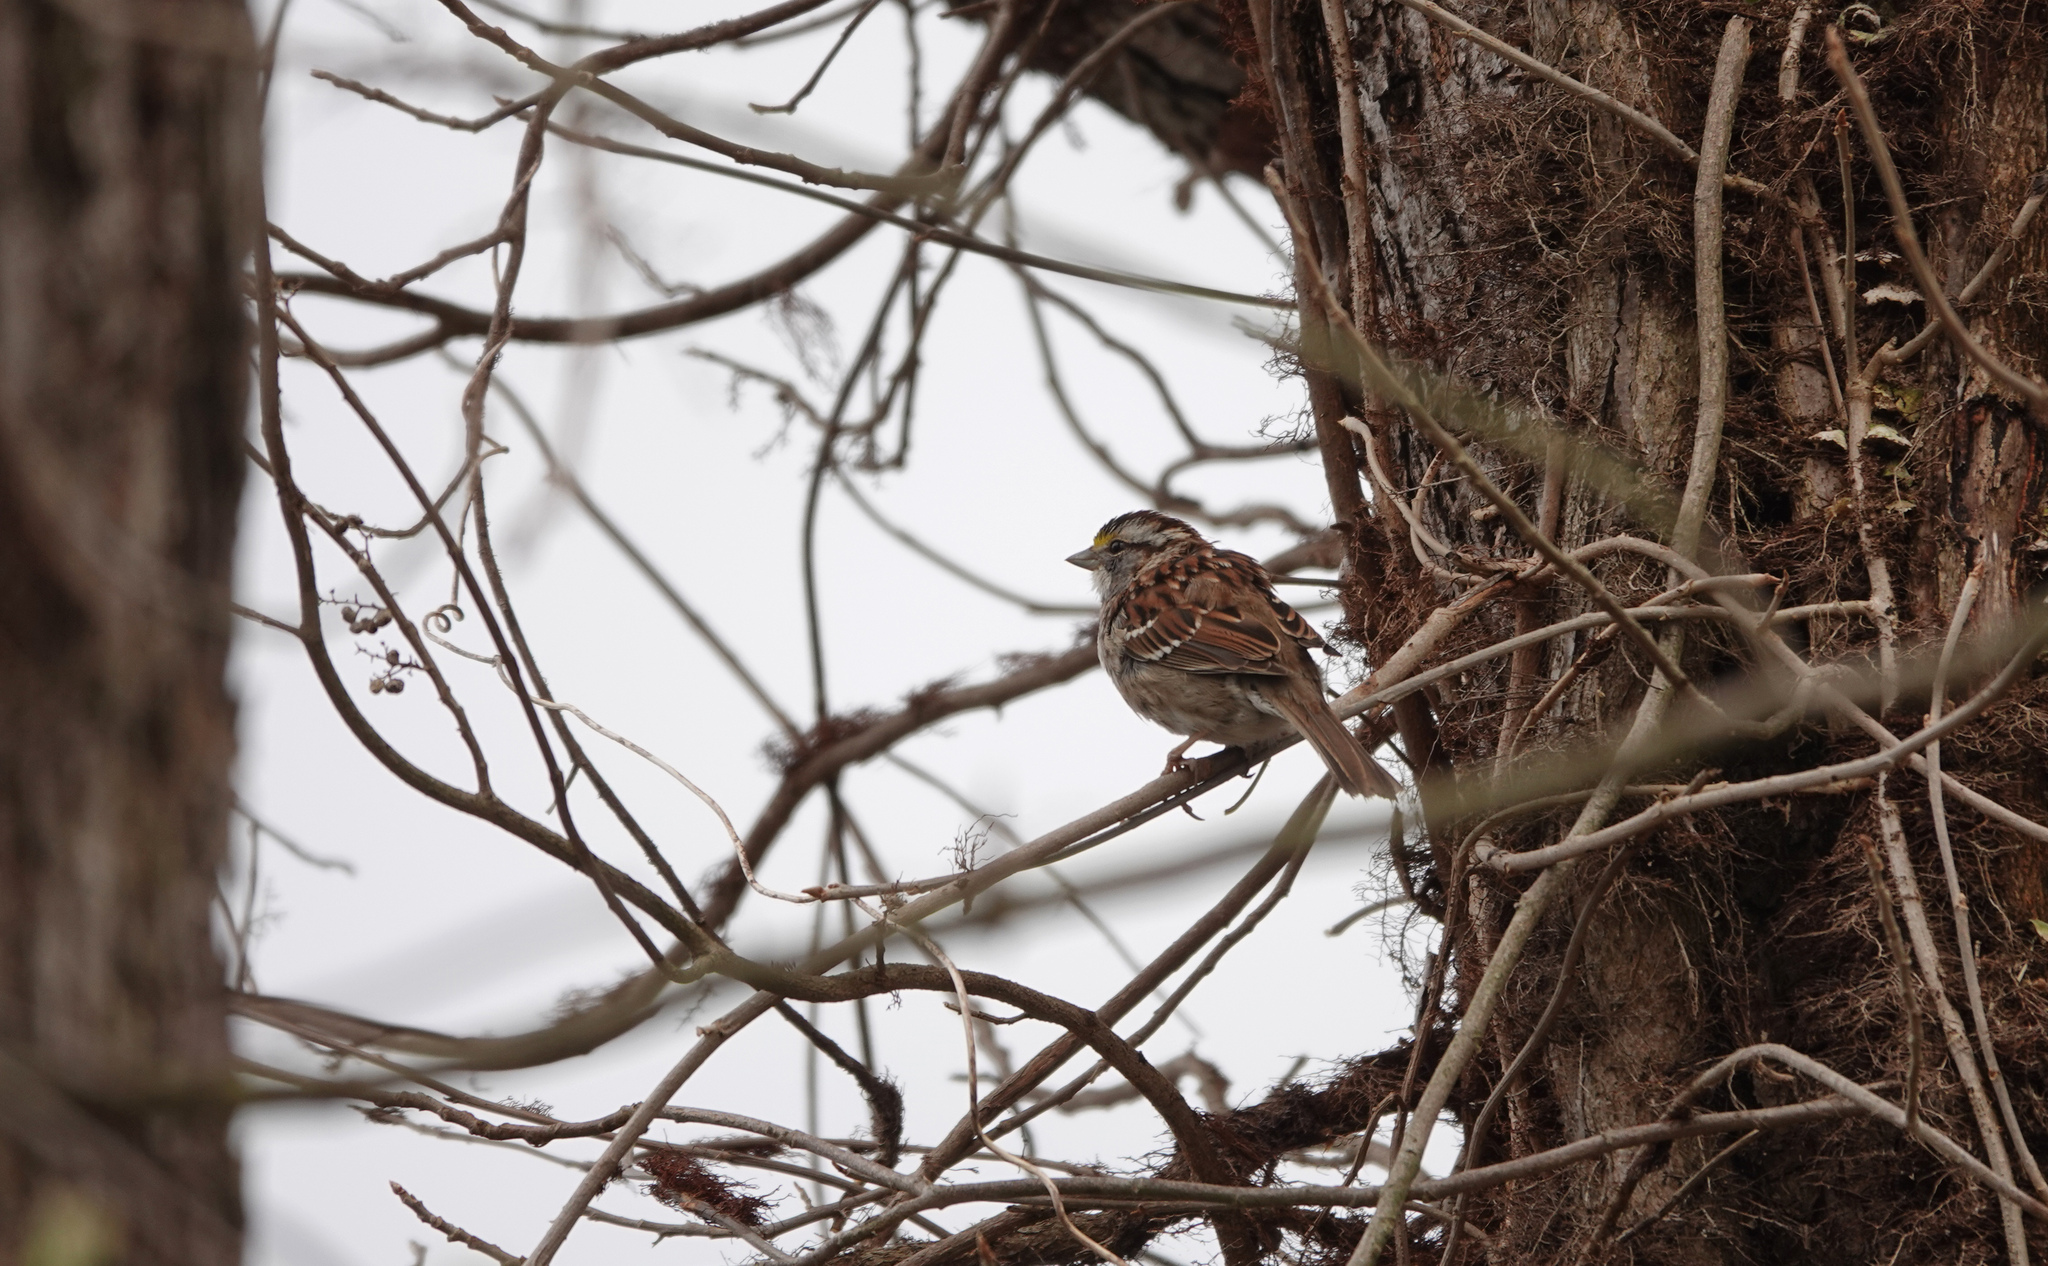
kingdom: Animalia
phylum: Chordata
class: Aves
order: Passeriformes
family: Passerellidae
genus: Zonotrichia
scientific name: Zonotrichia albicollis
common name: White-throated sparrow
